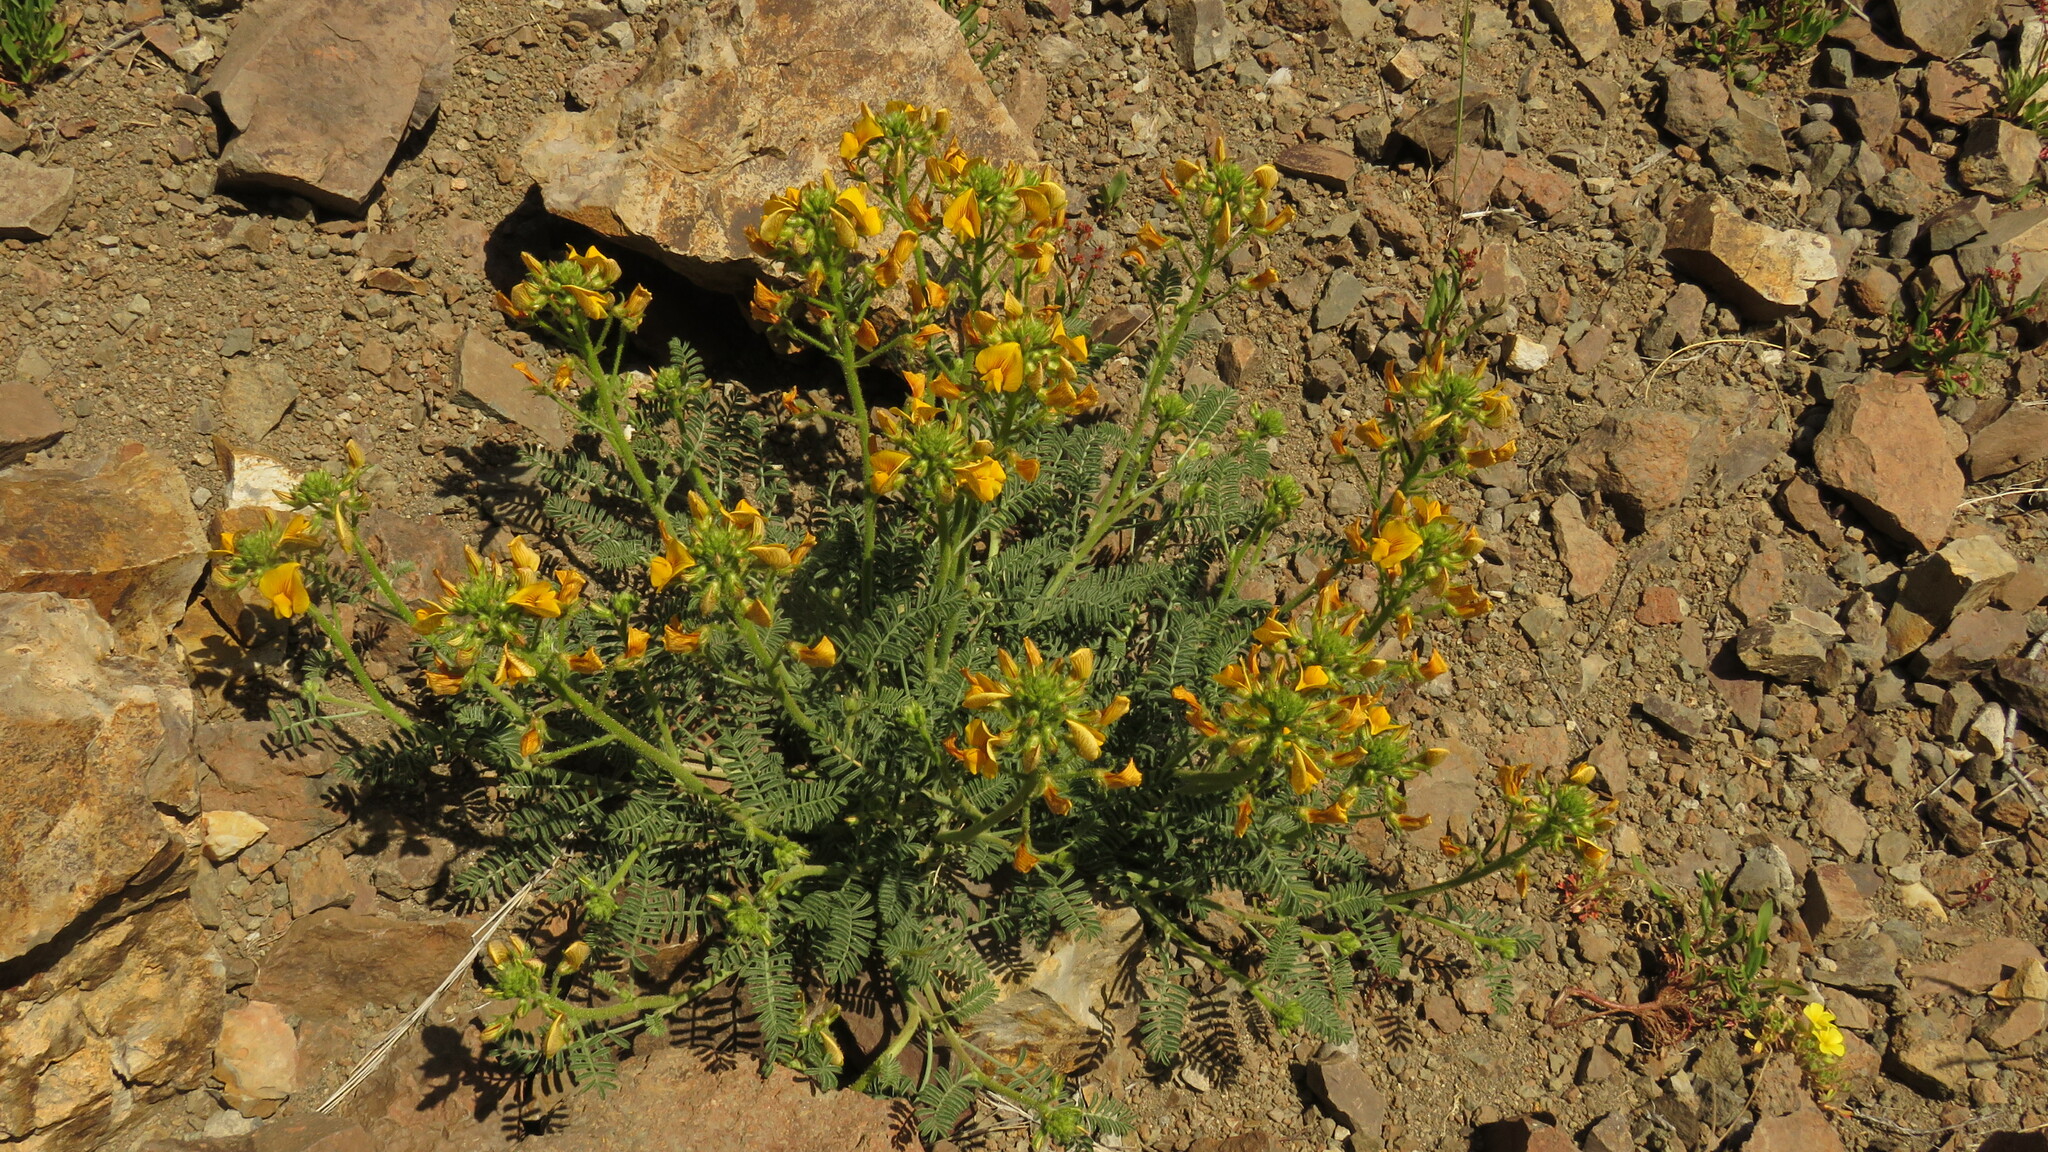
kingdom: Plantae
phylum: Tracheophyta
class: Magnoliopsida
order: Fabales
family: Fabaceae
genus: Adesmia
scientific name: Adesmia corymbosa
